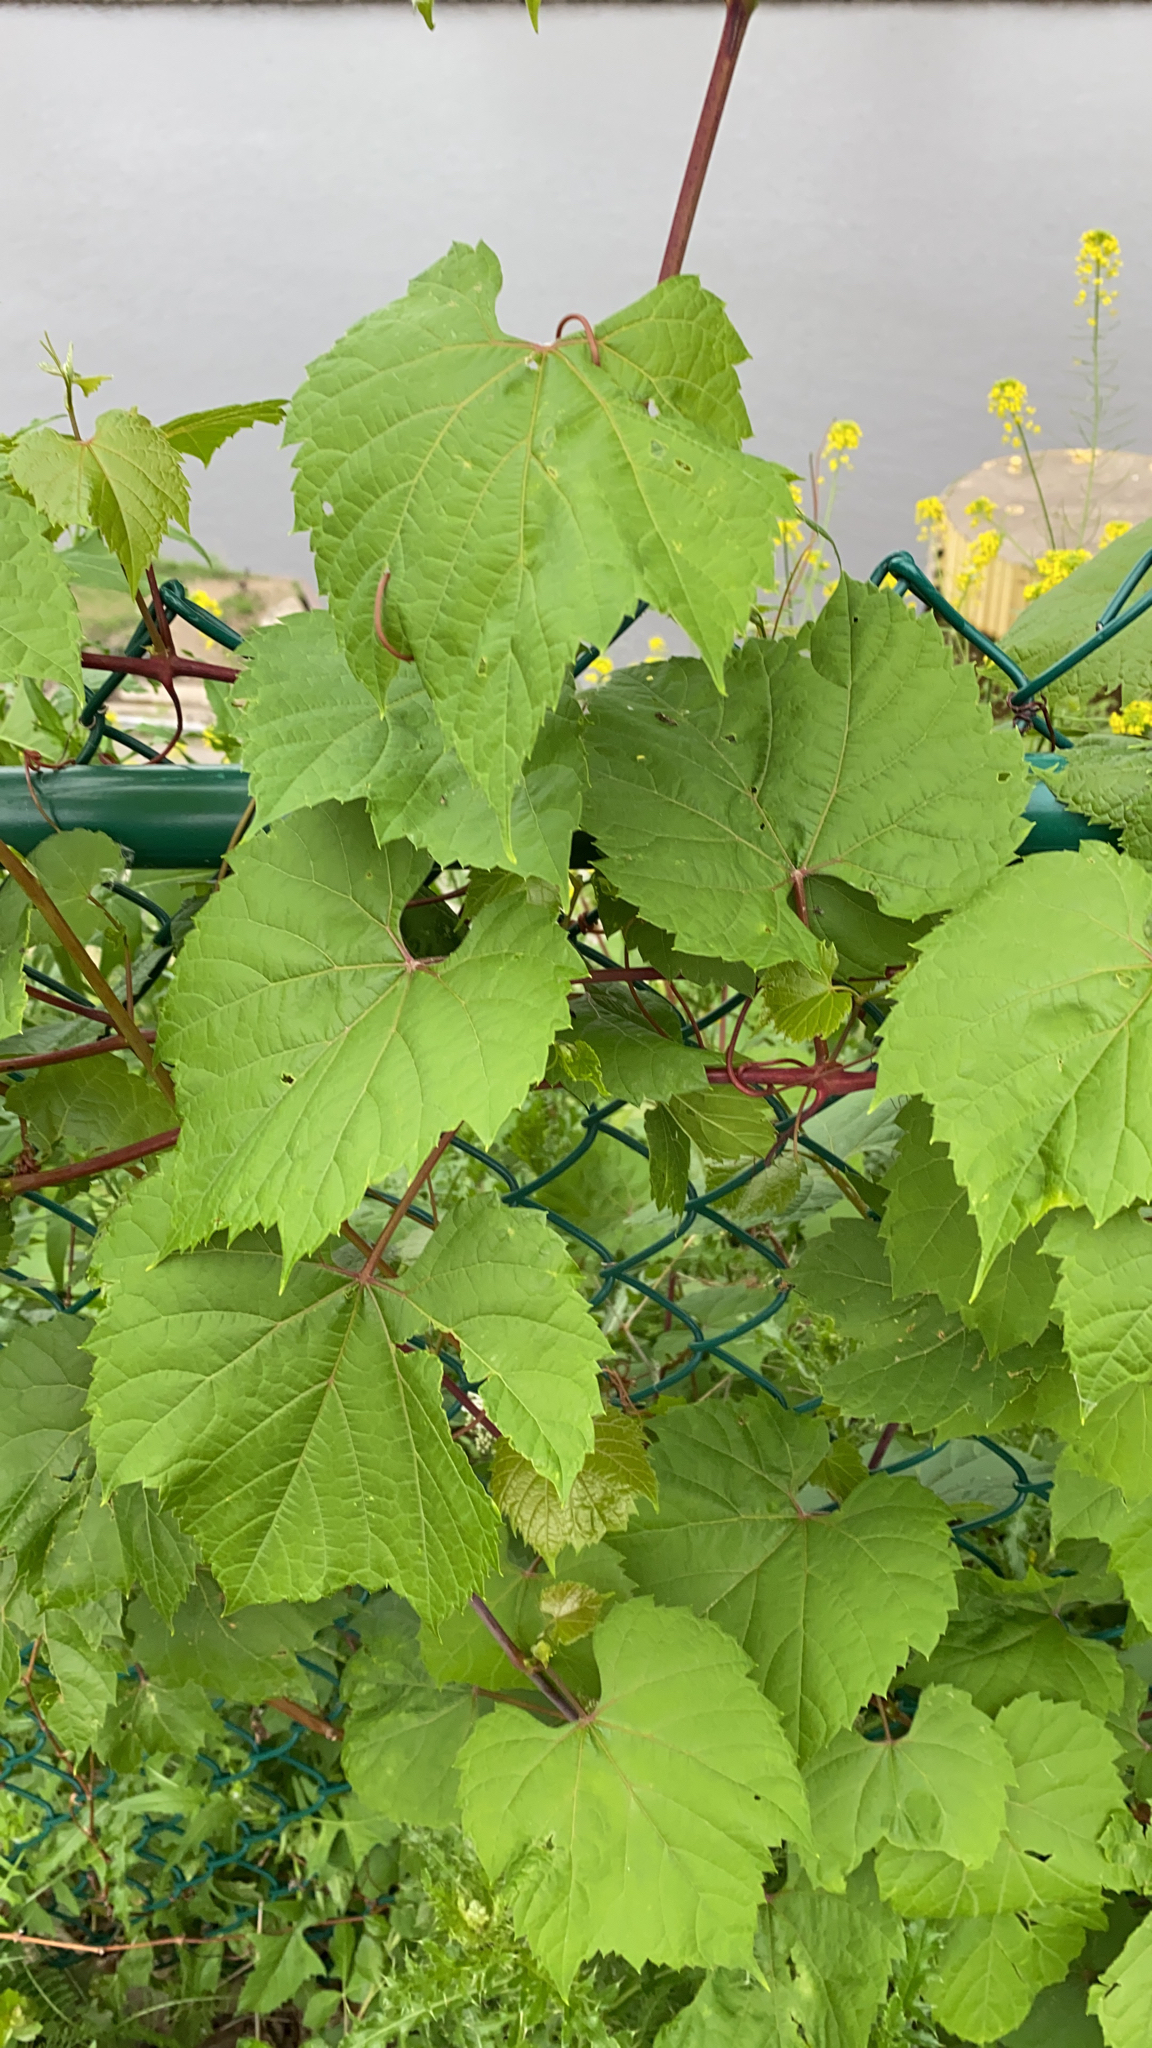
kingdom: Plantae
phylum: Tracheophyta
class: Magnoliopsida
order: Vitales
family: Vitaceae
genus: Vitis
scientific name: Vitis riparia
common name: Frost grape
